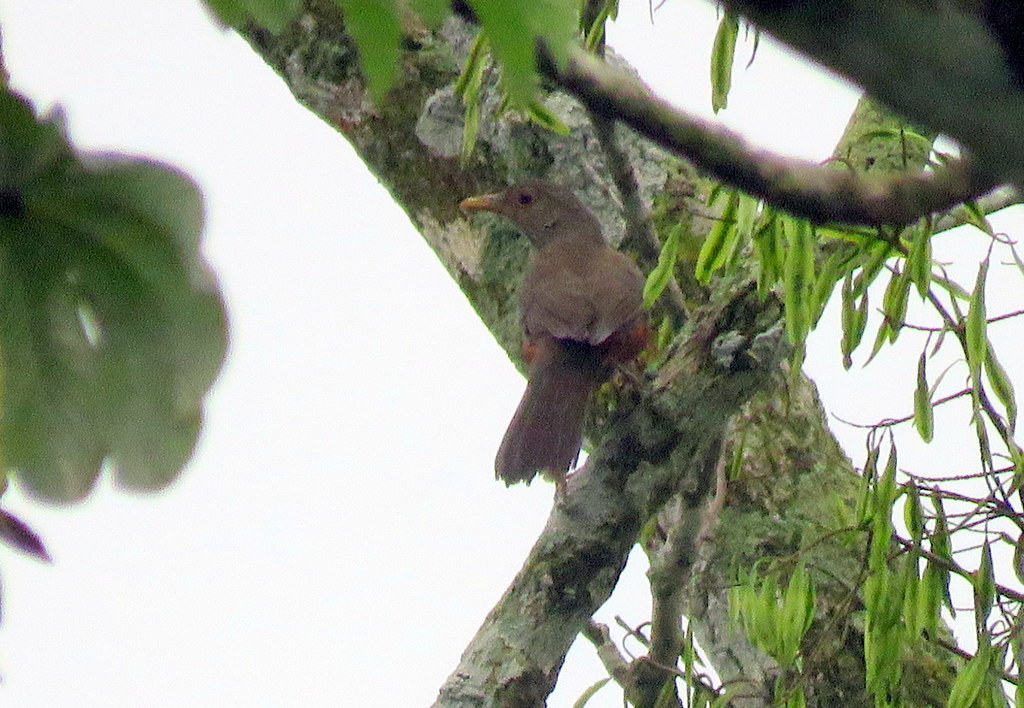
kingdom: Animalia
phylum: Chordata
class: Aves
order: Passeriformes
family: Turdidae
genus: Turdus
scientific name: Turdus rufiventris
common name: Rufous-bellied thrush
